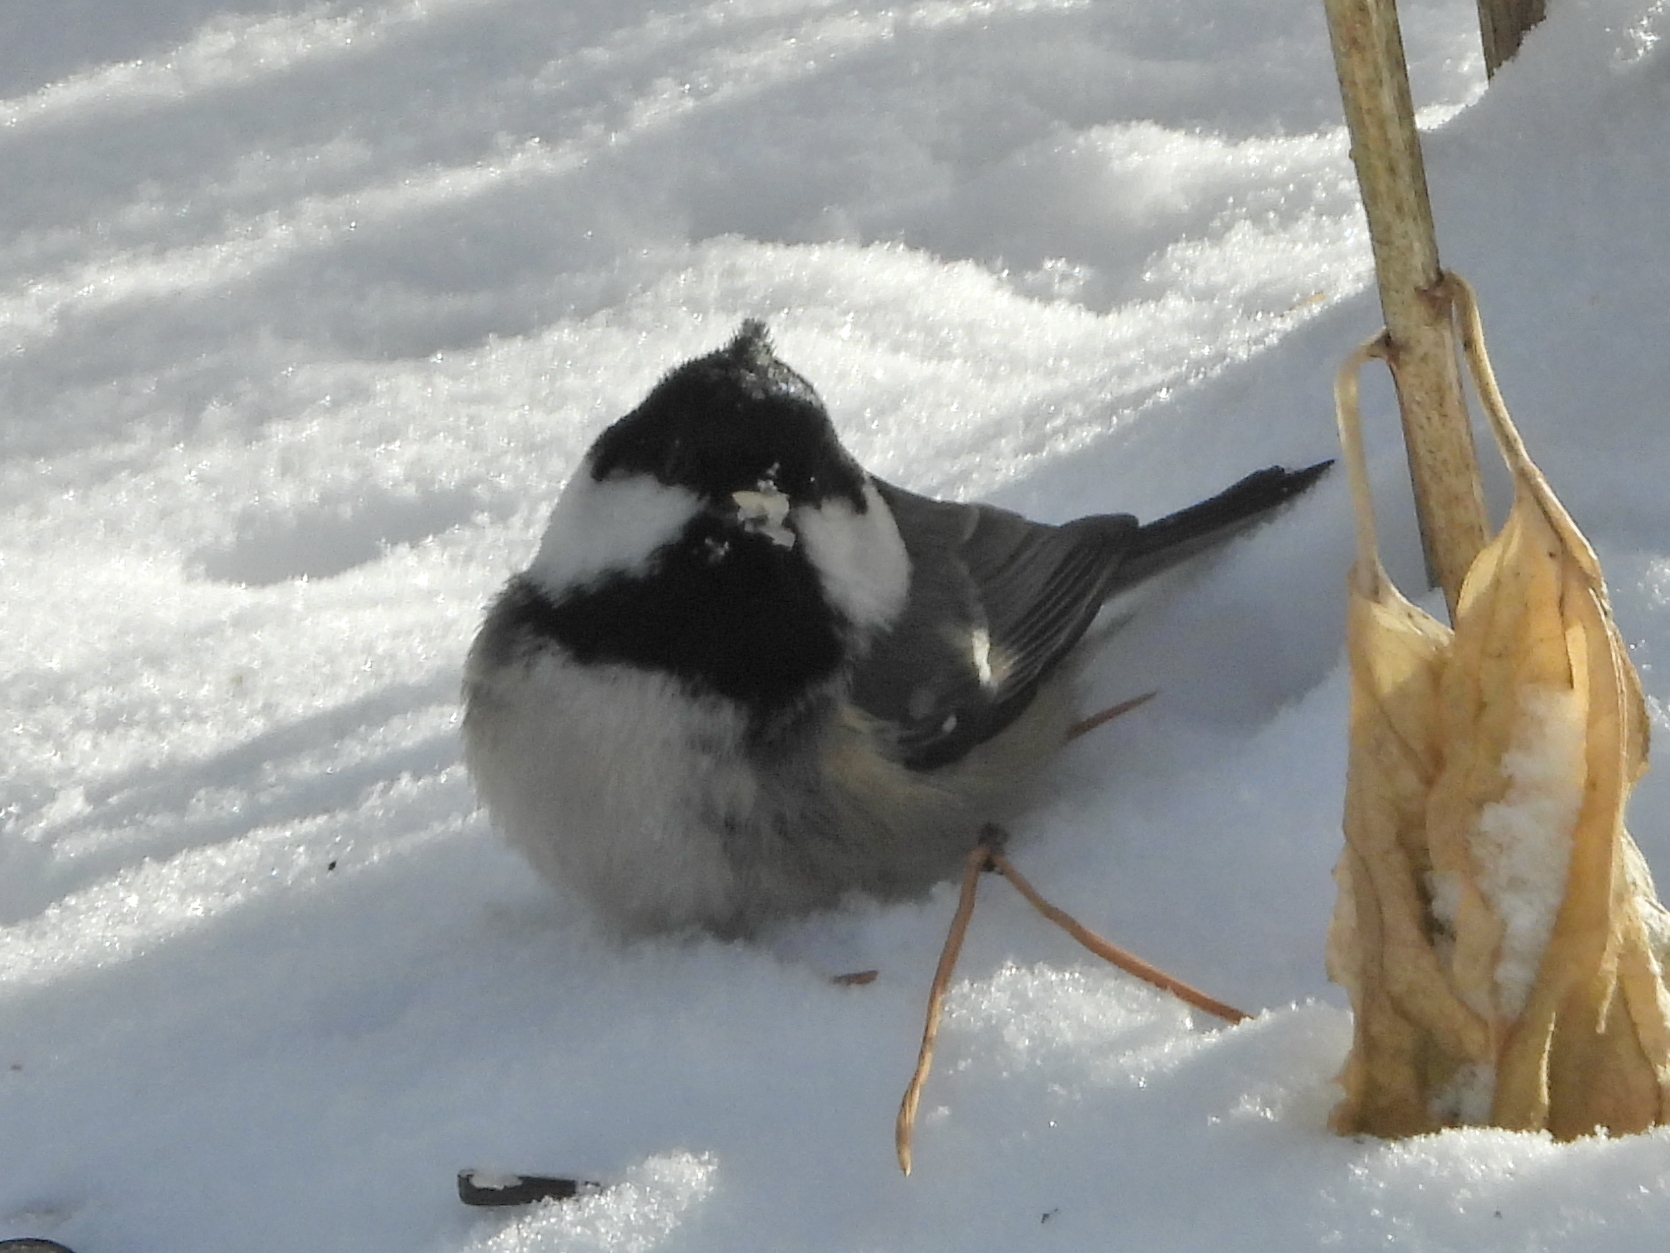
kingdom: Animalia
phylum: Chordata
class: Aves
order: Passeriformes
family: Paridae
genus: Periparus
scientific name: Periparus ater
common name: Coal tit
